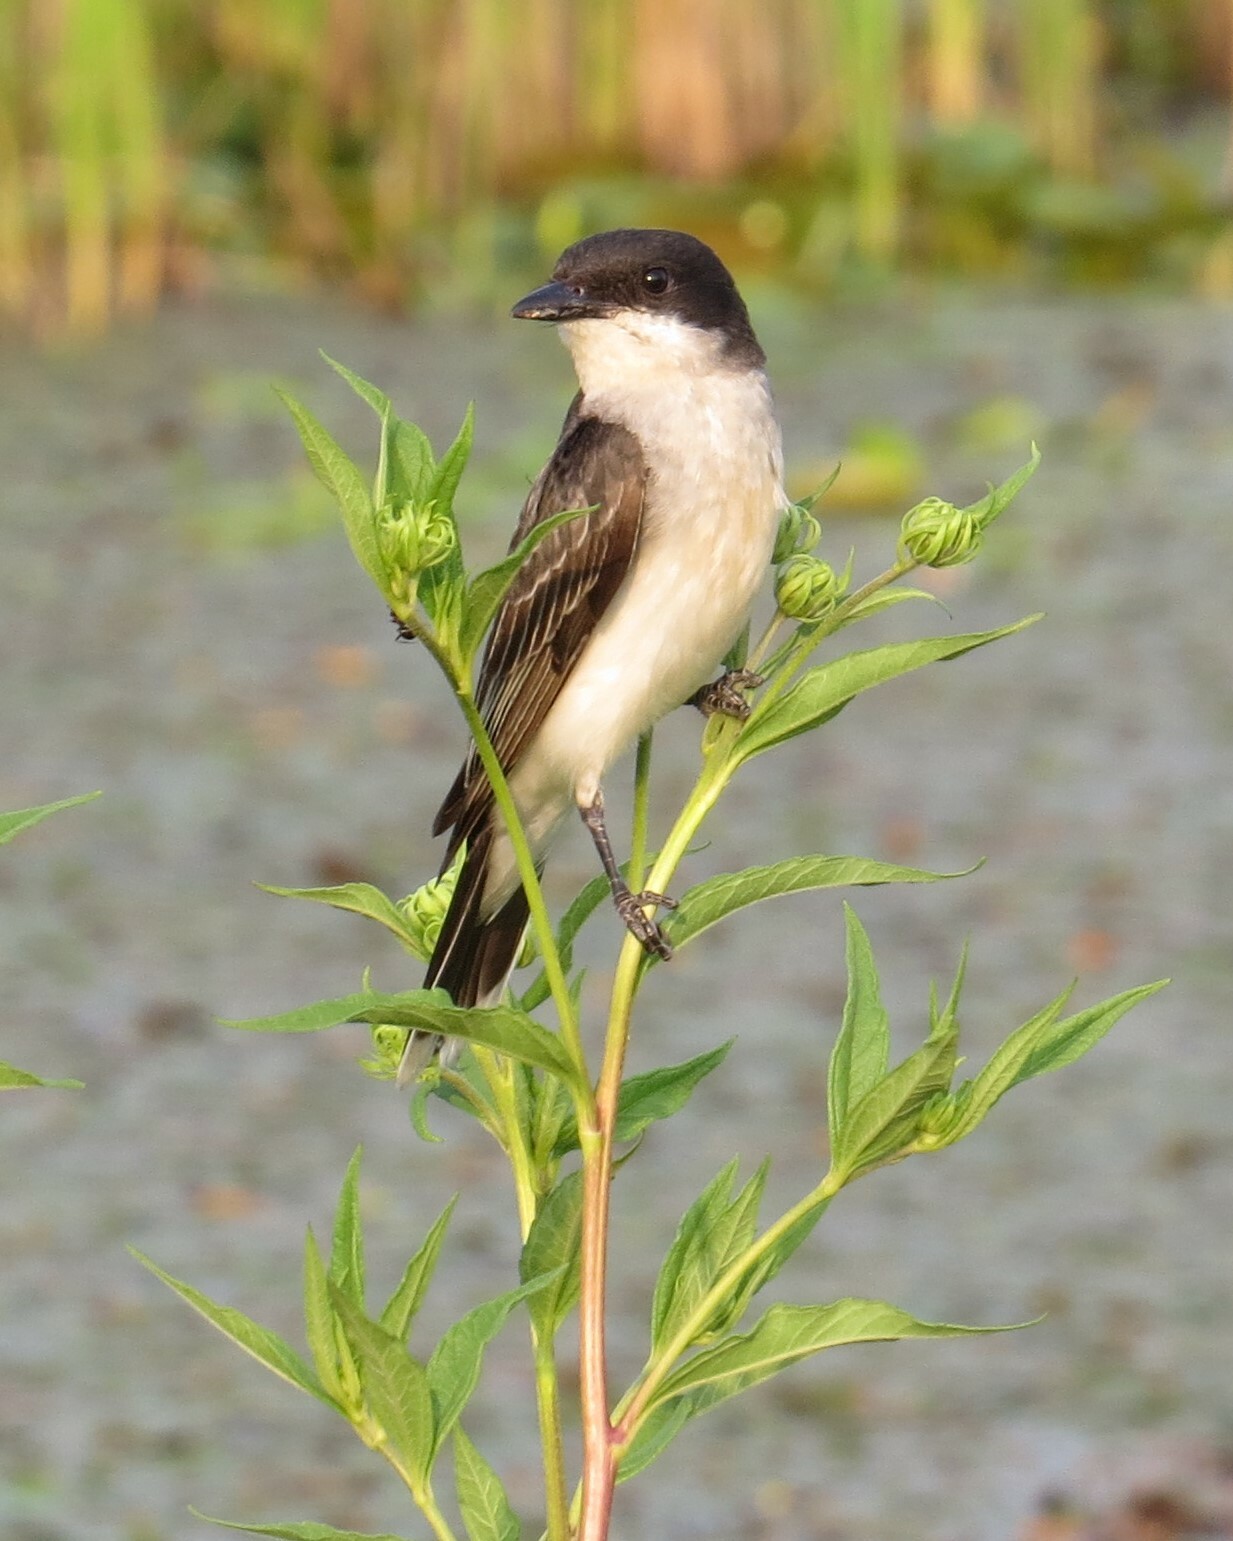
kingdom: Animalia
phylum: Chordata
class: Aves
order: Passeriformes
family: Tyrannidae
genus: Tyrannus
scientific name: Tyrannus tyrannus
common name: Eastern kingbird
